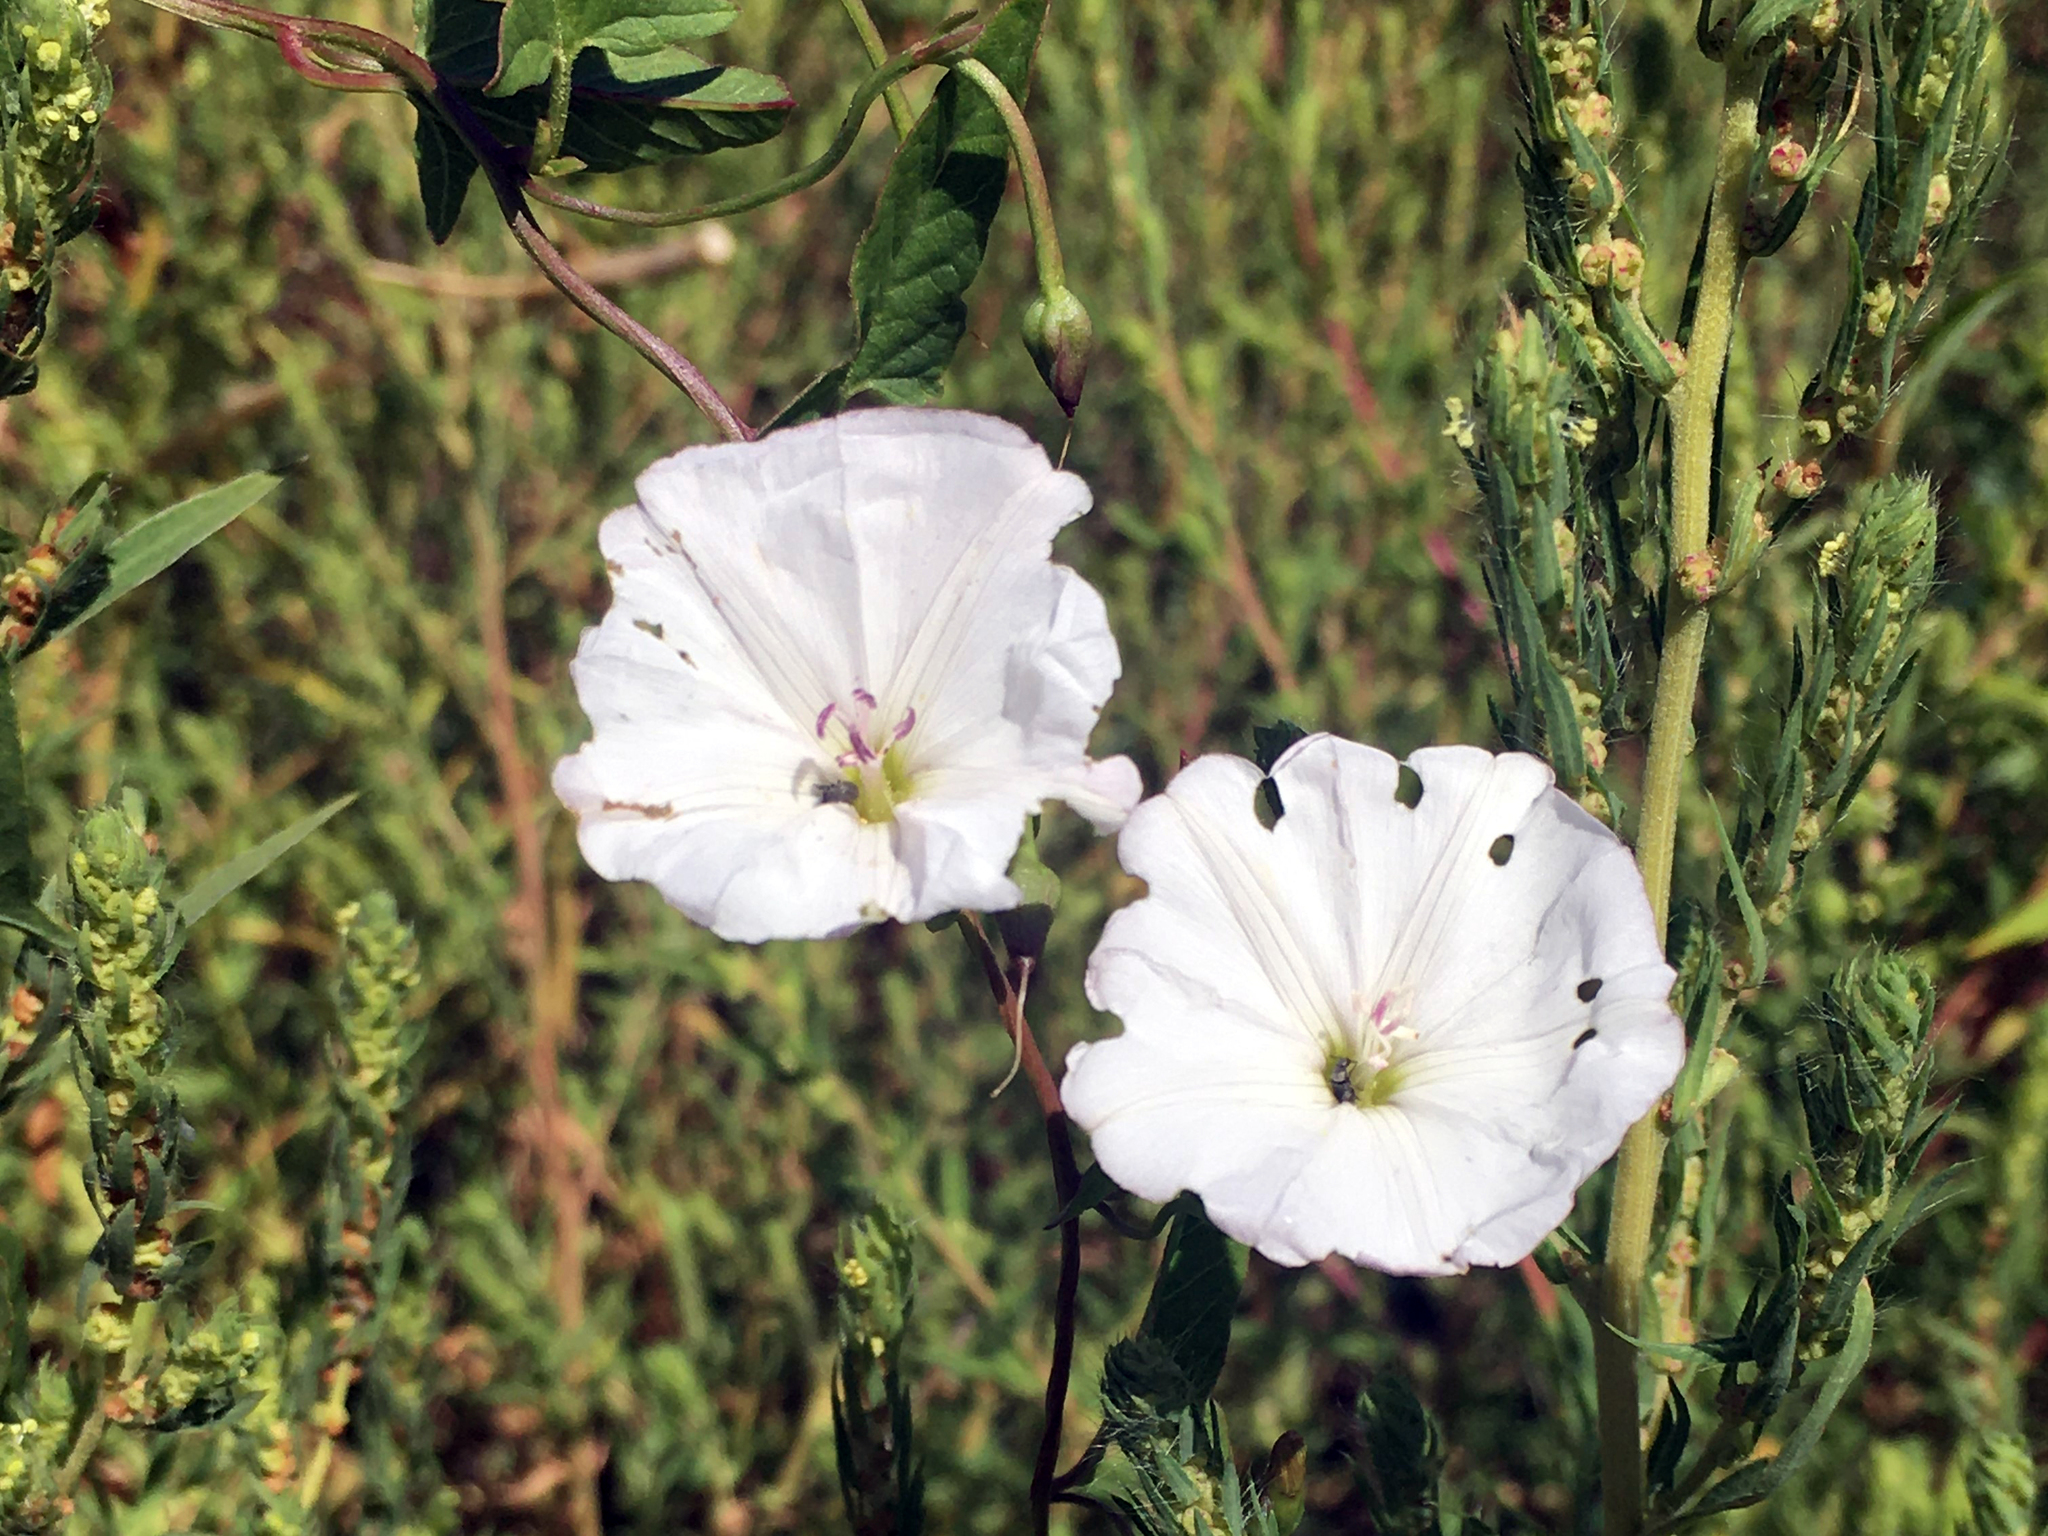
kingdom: Plantae
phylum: Tracheophyta
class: Magnoliopsida
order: Solanales
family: Convolvulaceae
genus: Convolvulus
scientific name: Convolvulus arvensis
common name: Field bindweed
